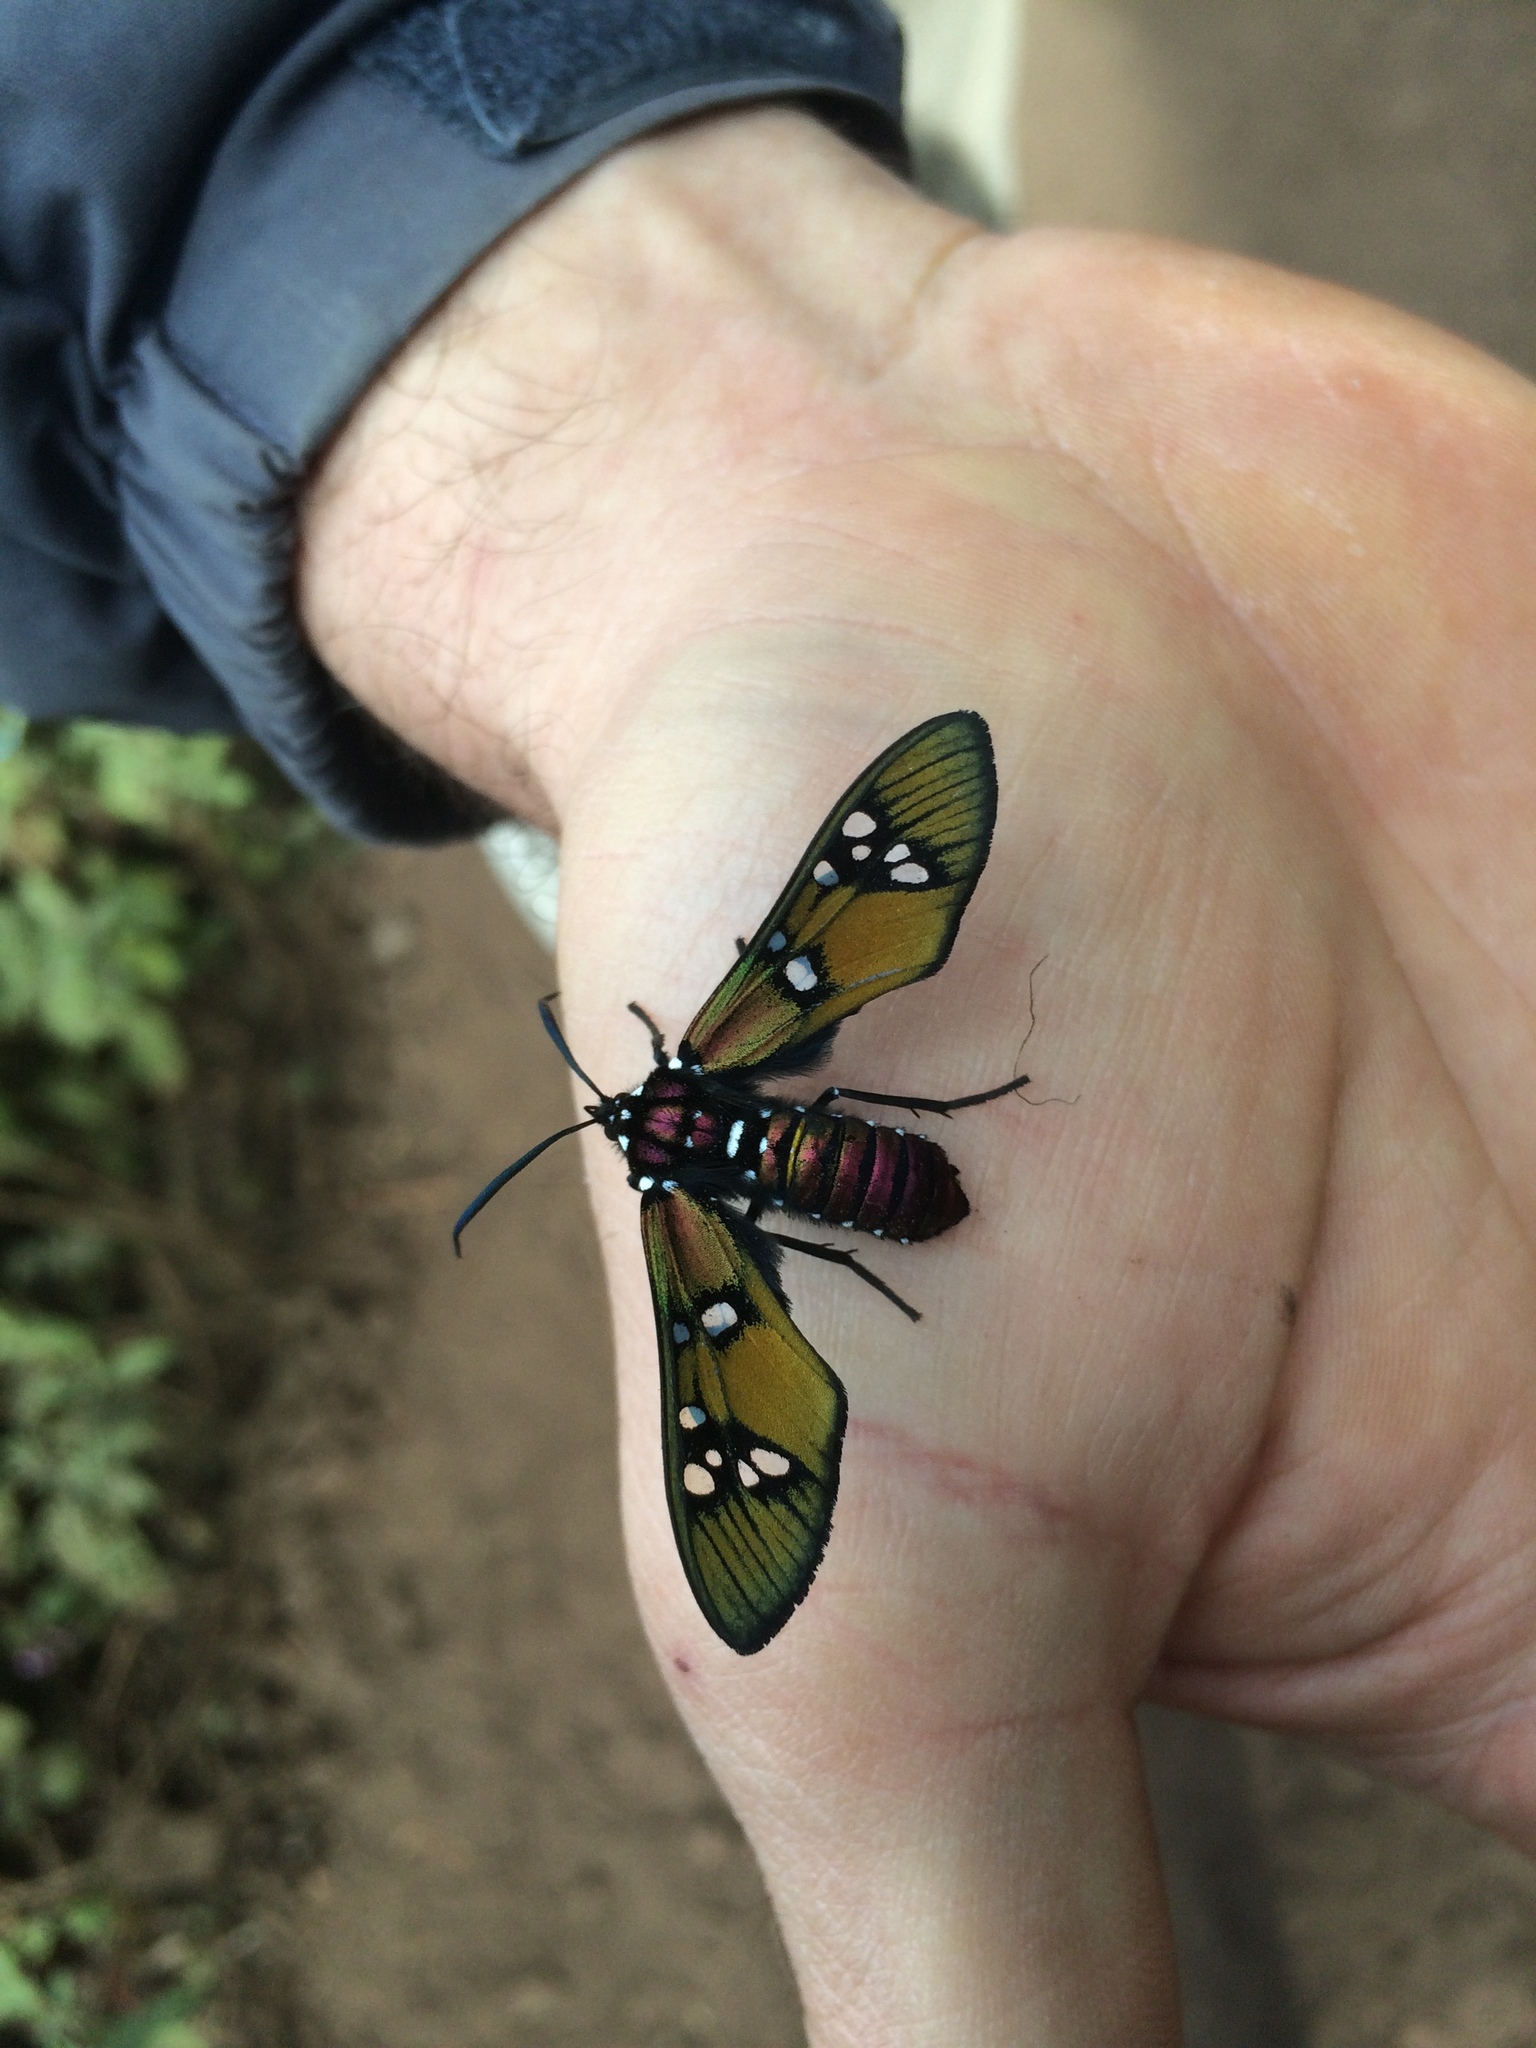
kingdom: Animalia
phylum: Arthropoda
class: Insecta
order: Lepidoptera
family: Erebidae
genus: Chrysocale
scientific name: Chrysocale principalis
